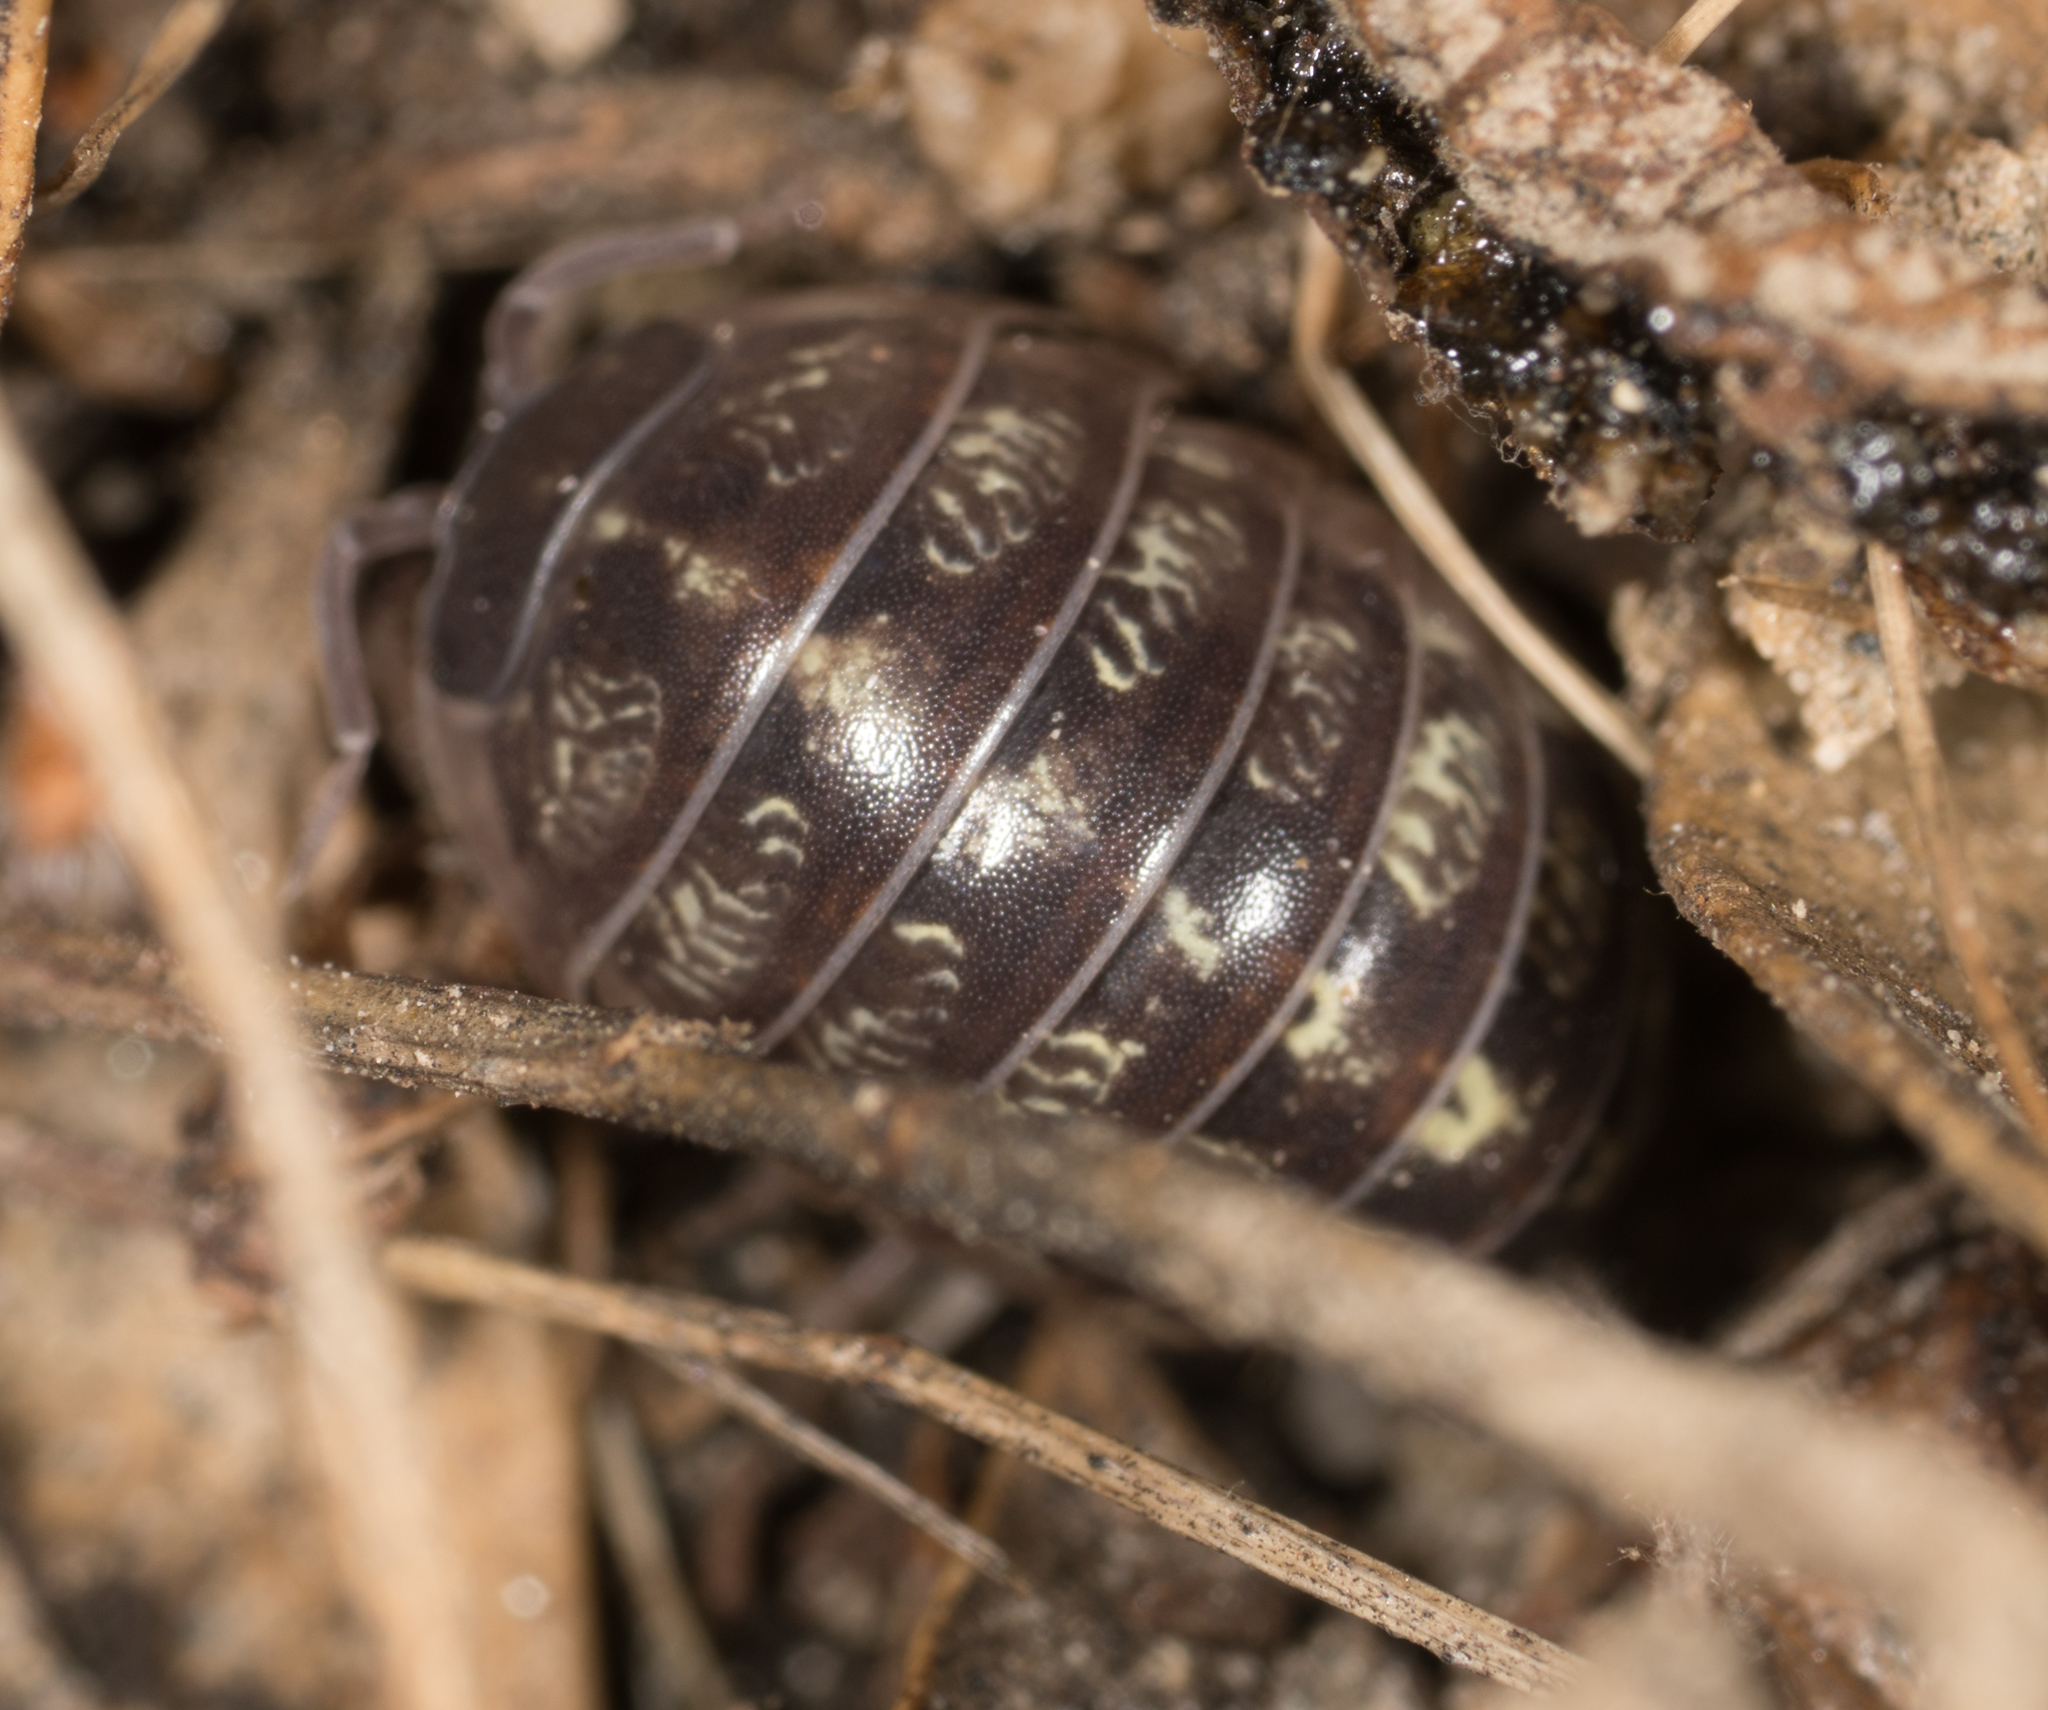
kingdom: Animalia
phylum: Arthropoda
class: Malacostraca
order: Isopoda
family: Armadillidiidae
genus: Armadillidium
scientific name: Armadillidium vulgare
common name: Common pill woodlouse
